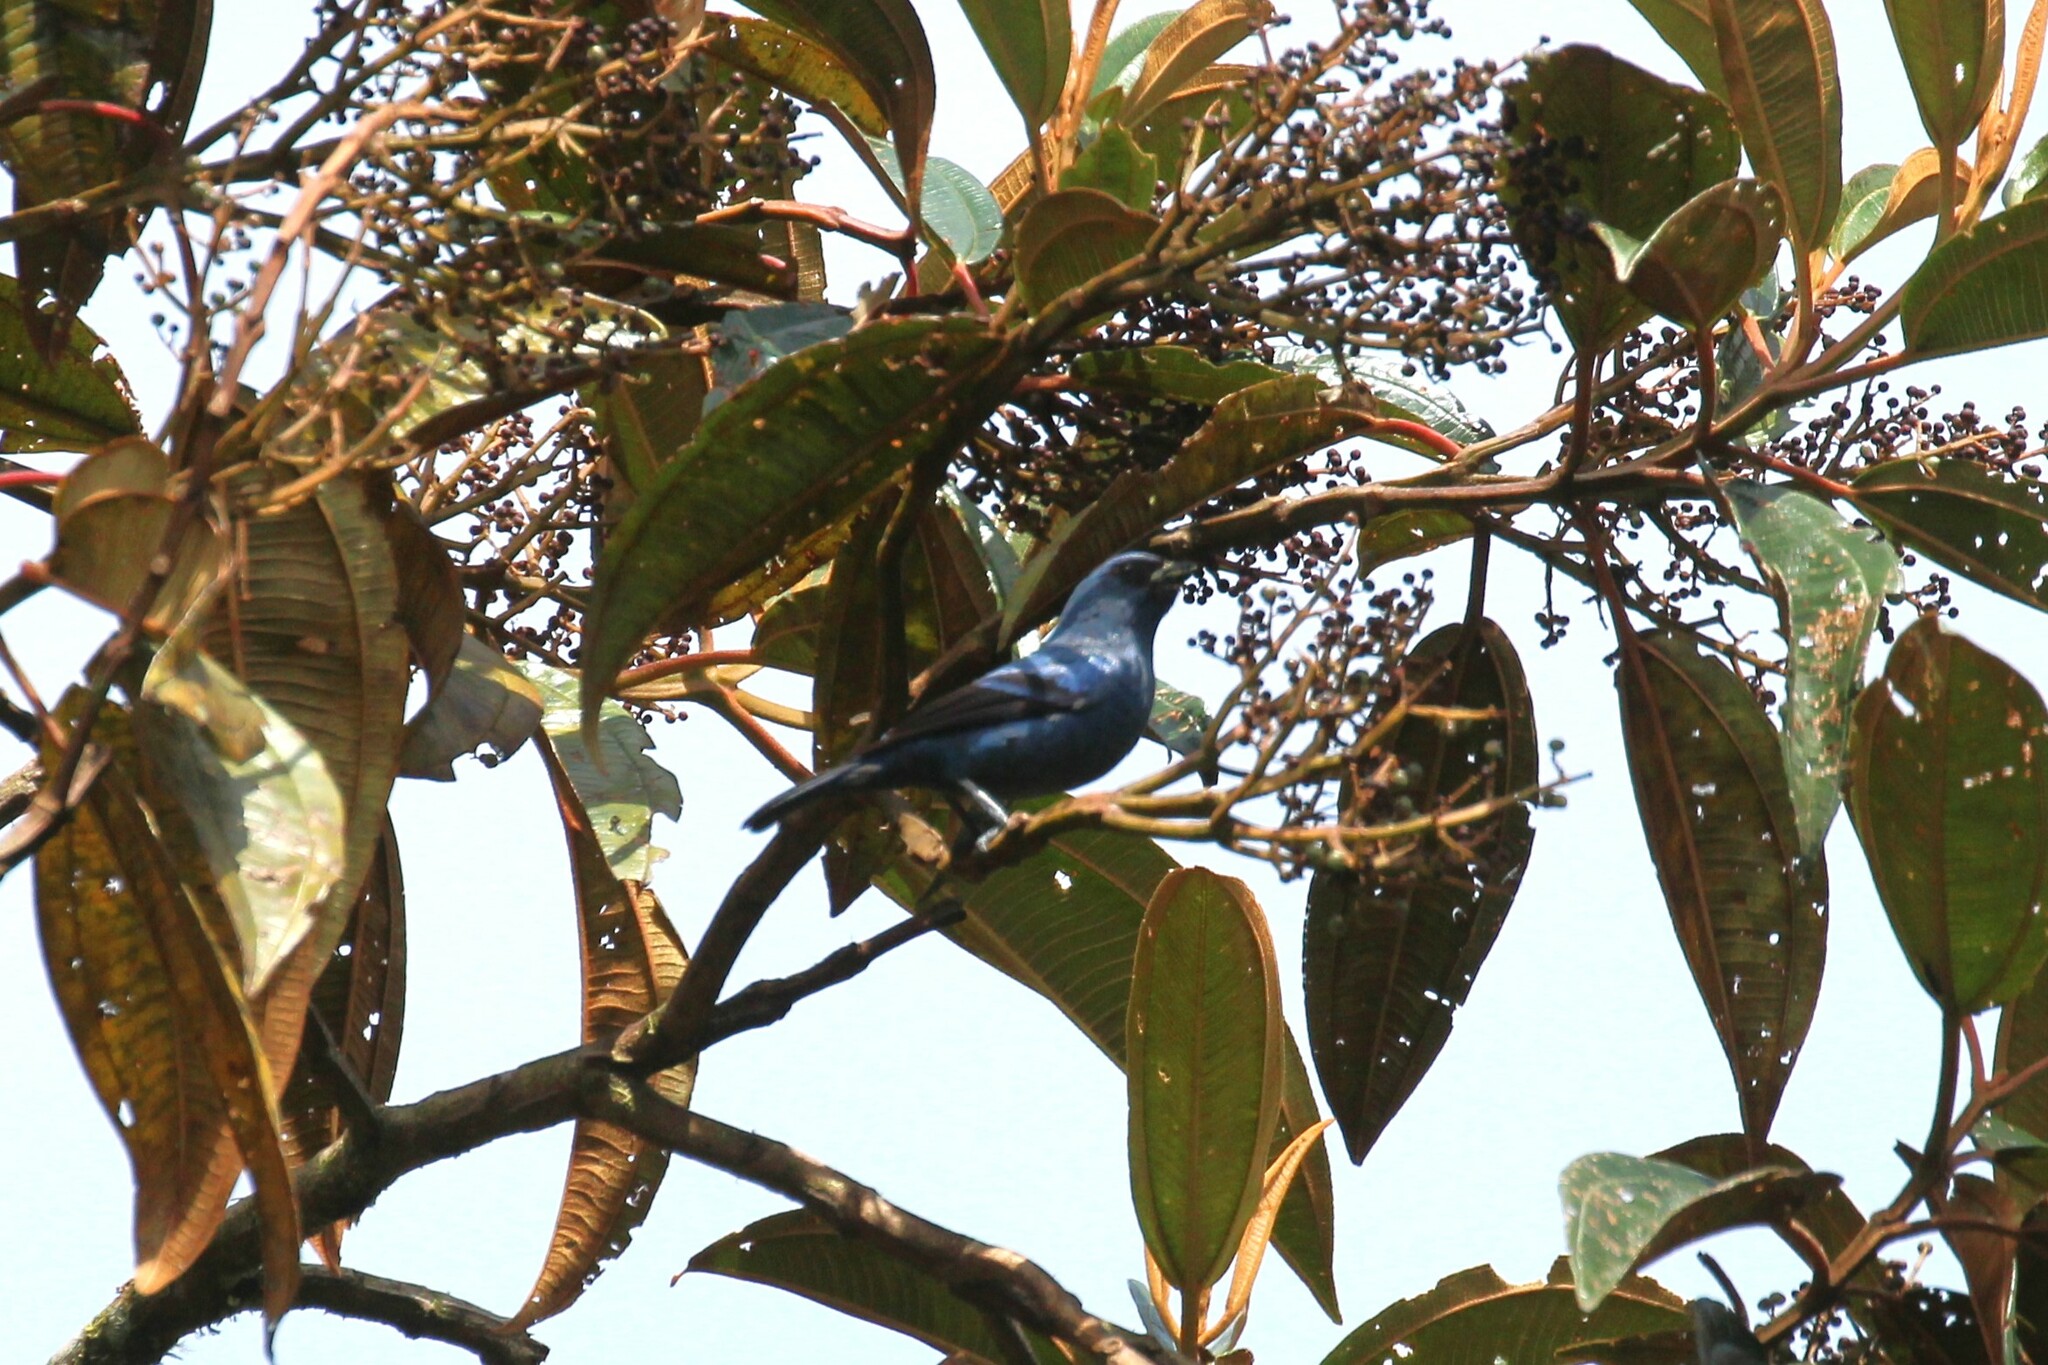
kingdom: Animalia
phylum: Chordata
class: Aves
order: Passeriformes
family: Thraupidae
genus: Tangara
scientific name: Tangara vassorii
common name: Blue-and-black tanager
